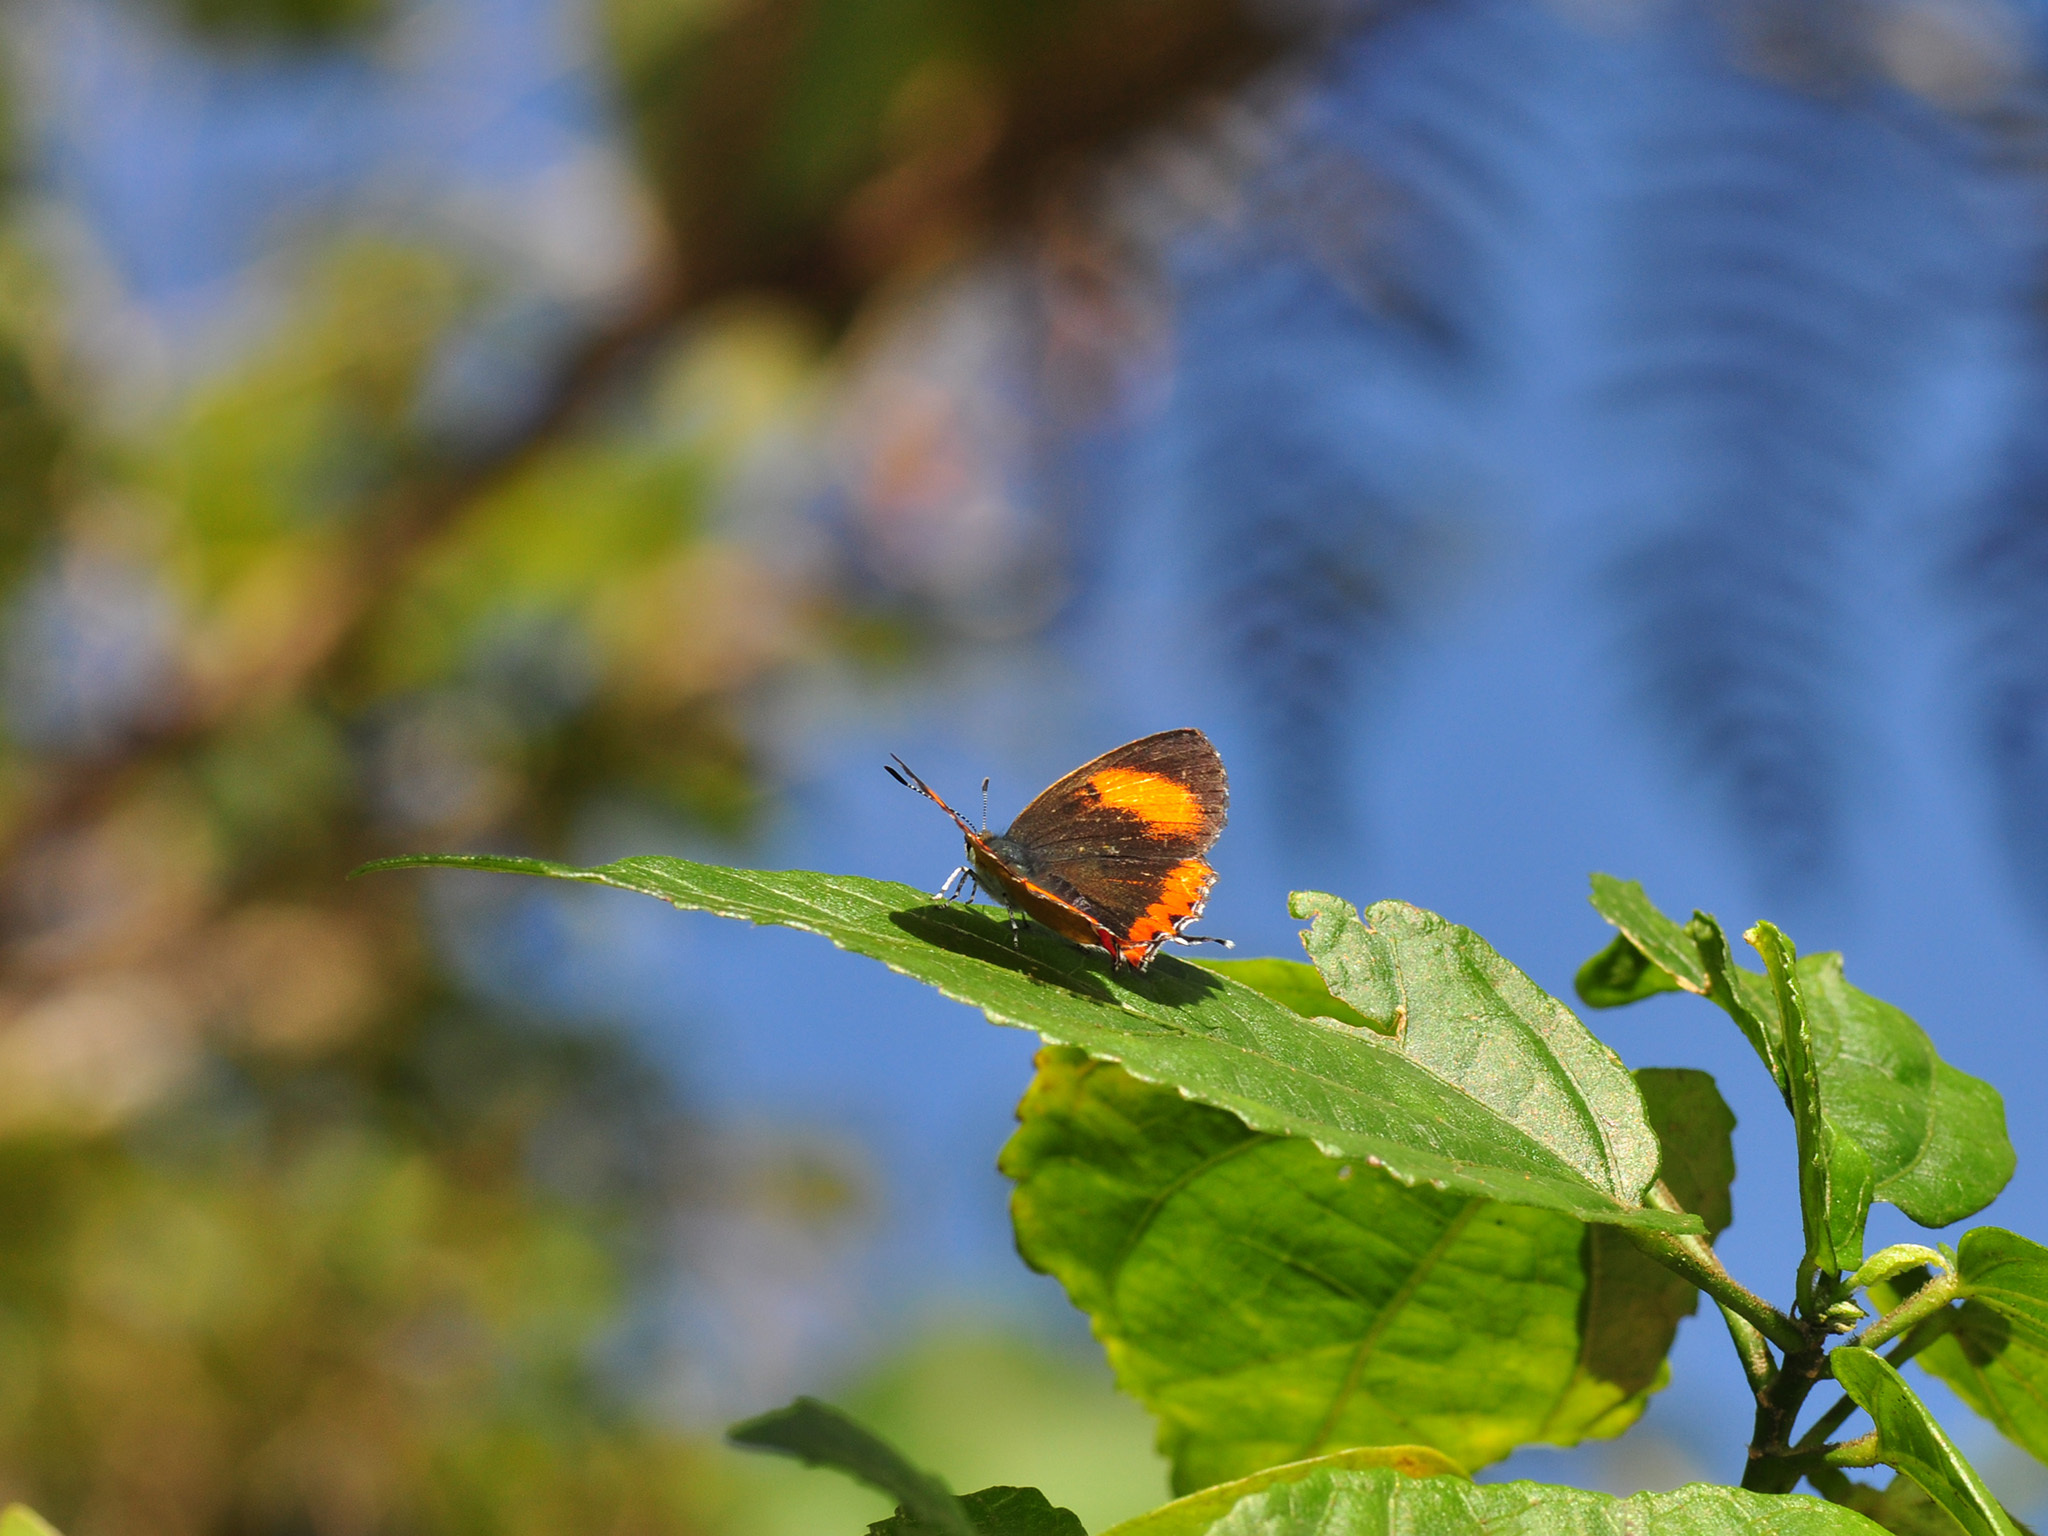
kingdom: Animalia
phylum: Arthropoda
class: Insecta
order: Lepidoptera
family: Lycaenidae
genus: Heliophorus
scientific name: Heliophorus epicles
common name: Purple sapphire
